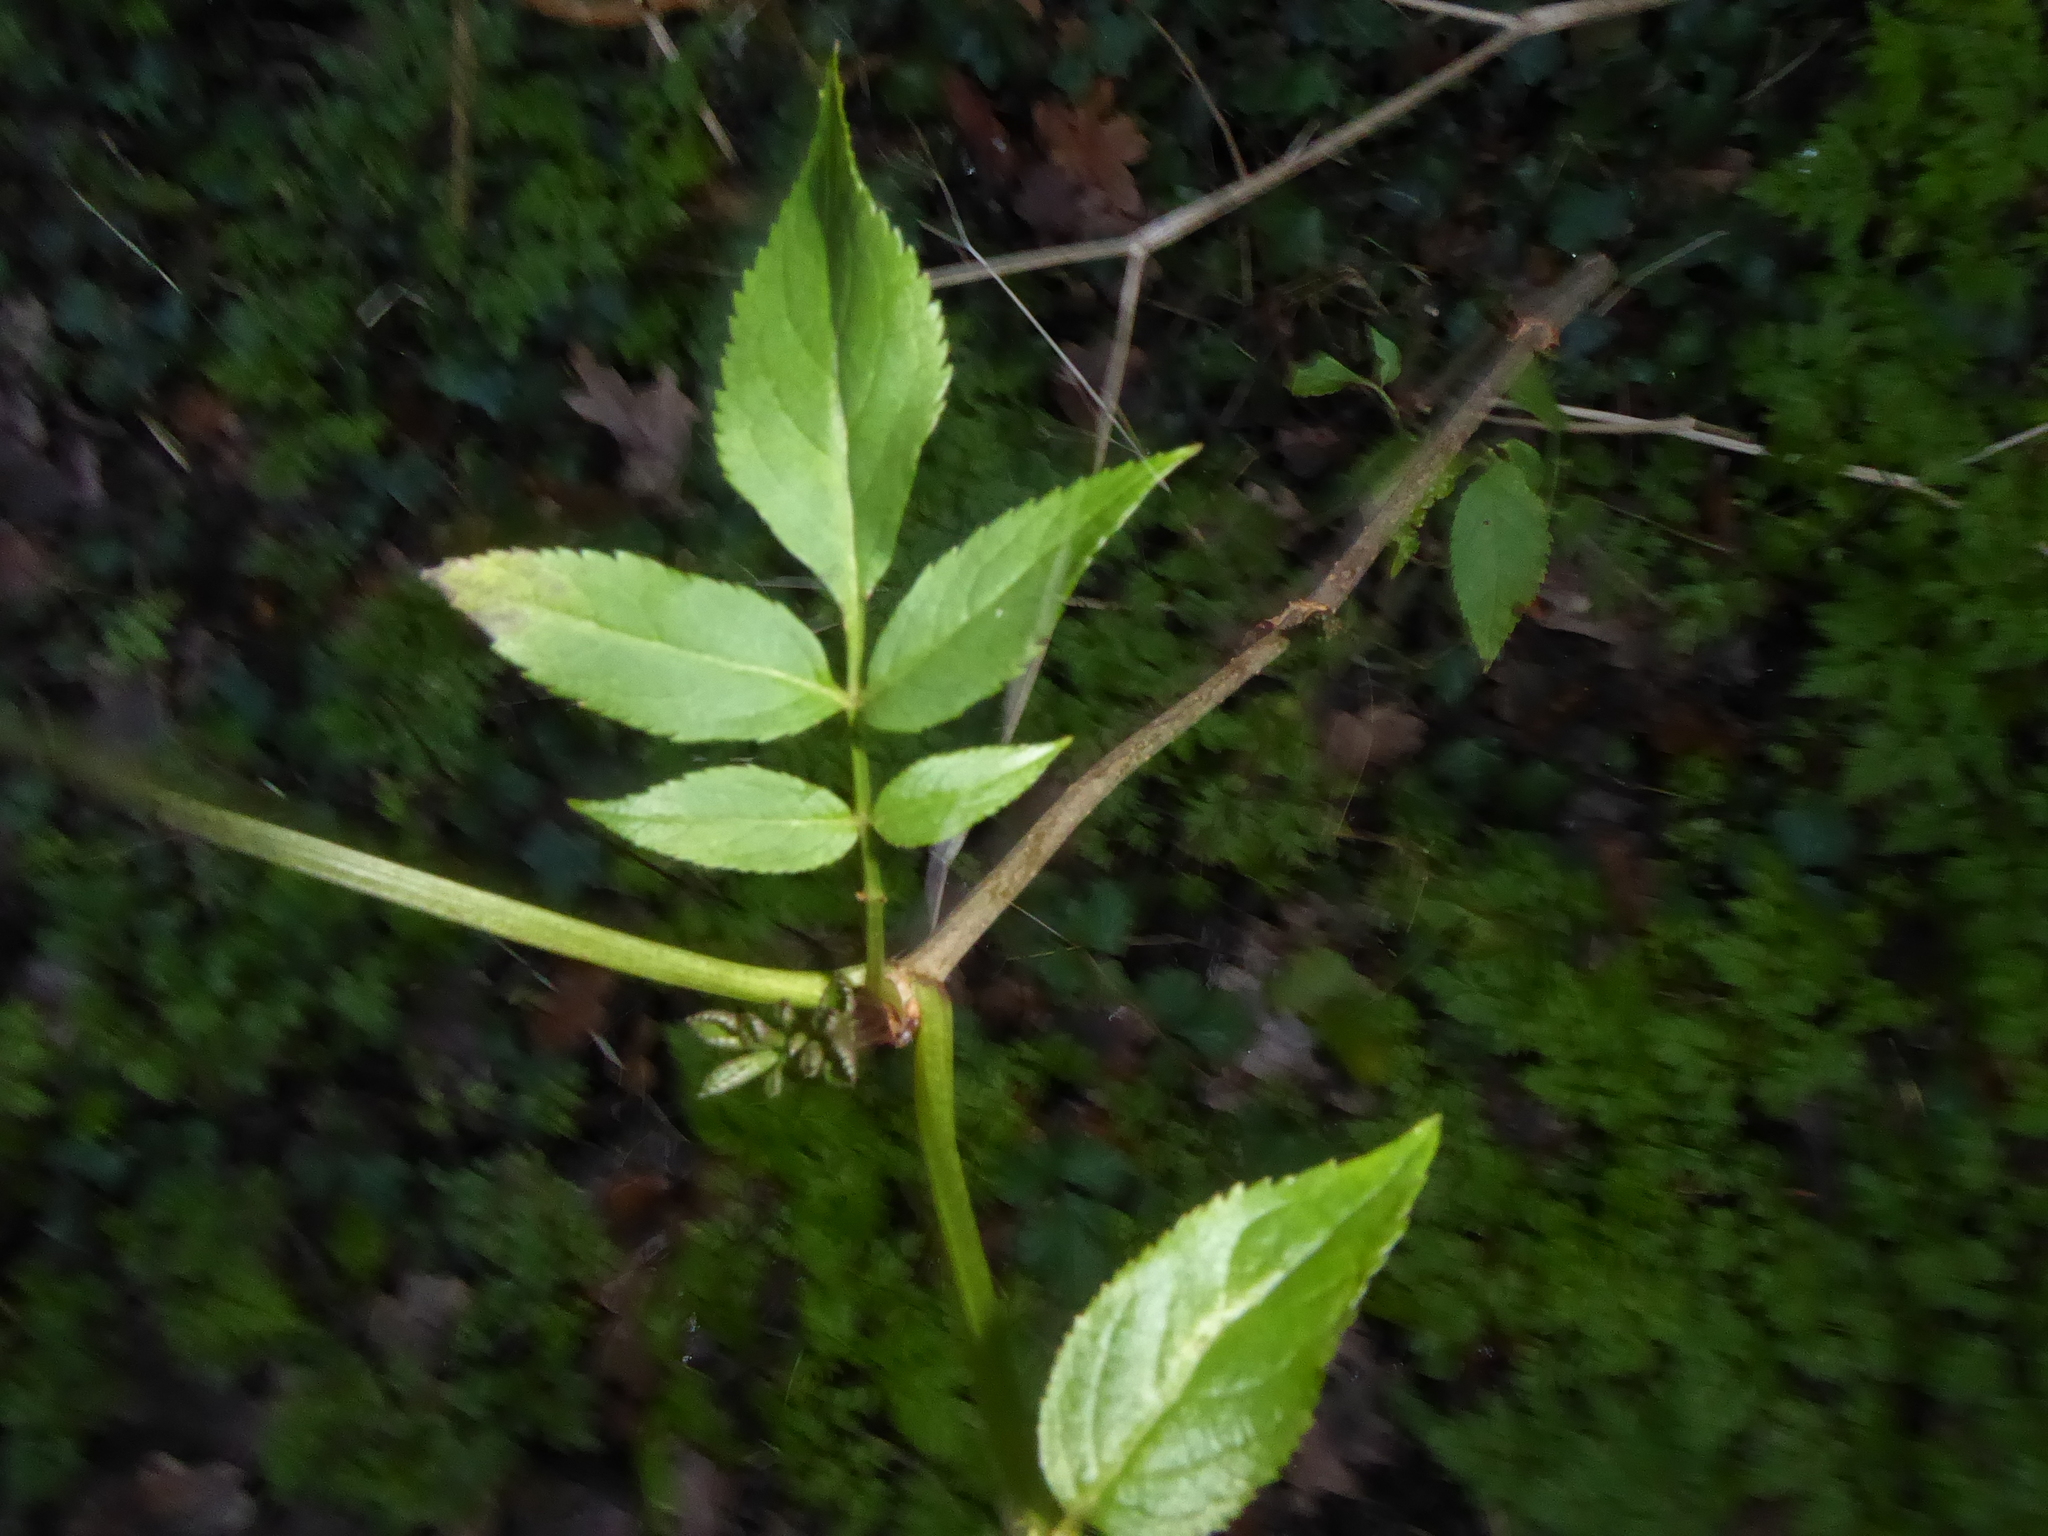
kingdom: Plantae
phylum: Tracheophyta
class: Magnoliopsida
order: Dipsacales
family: Viburnaceae
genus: Sambucus
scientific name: Sambucus nigra
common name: Elder
